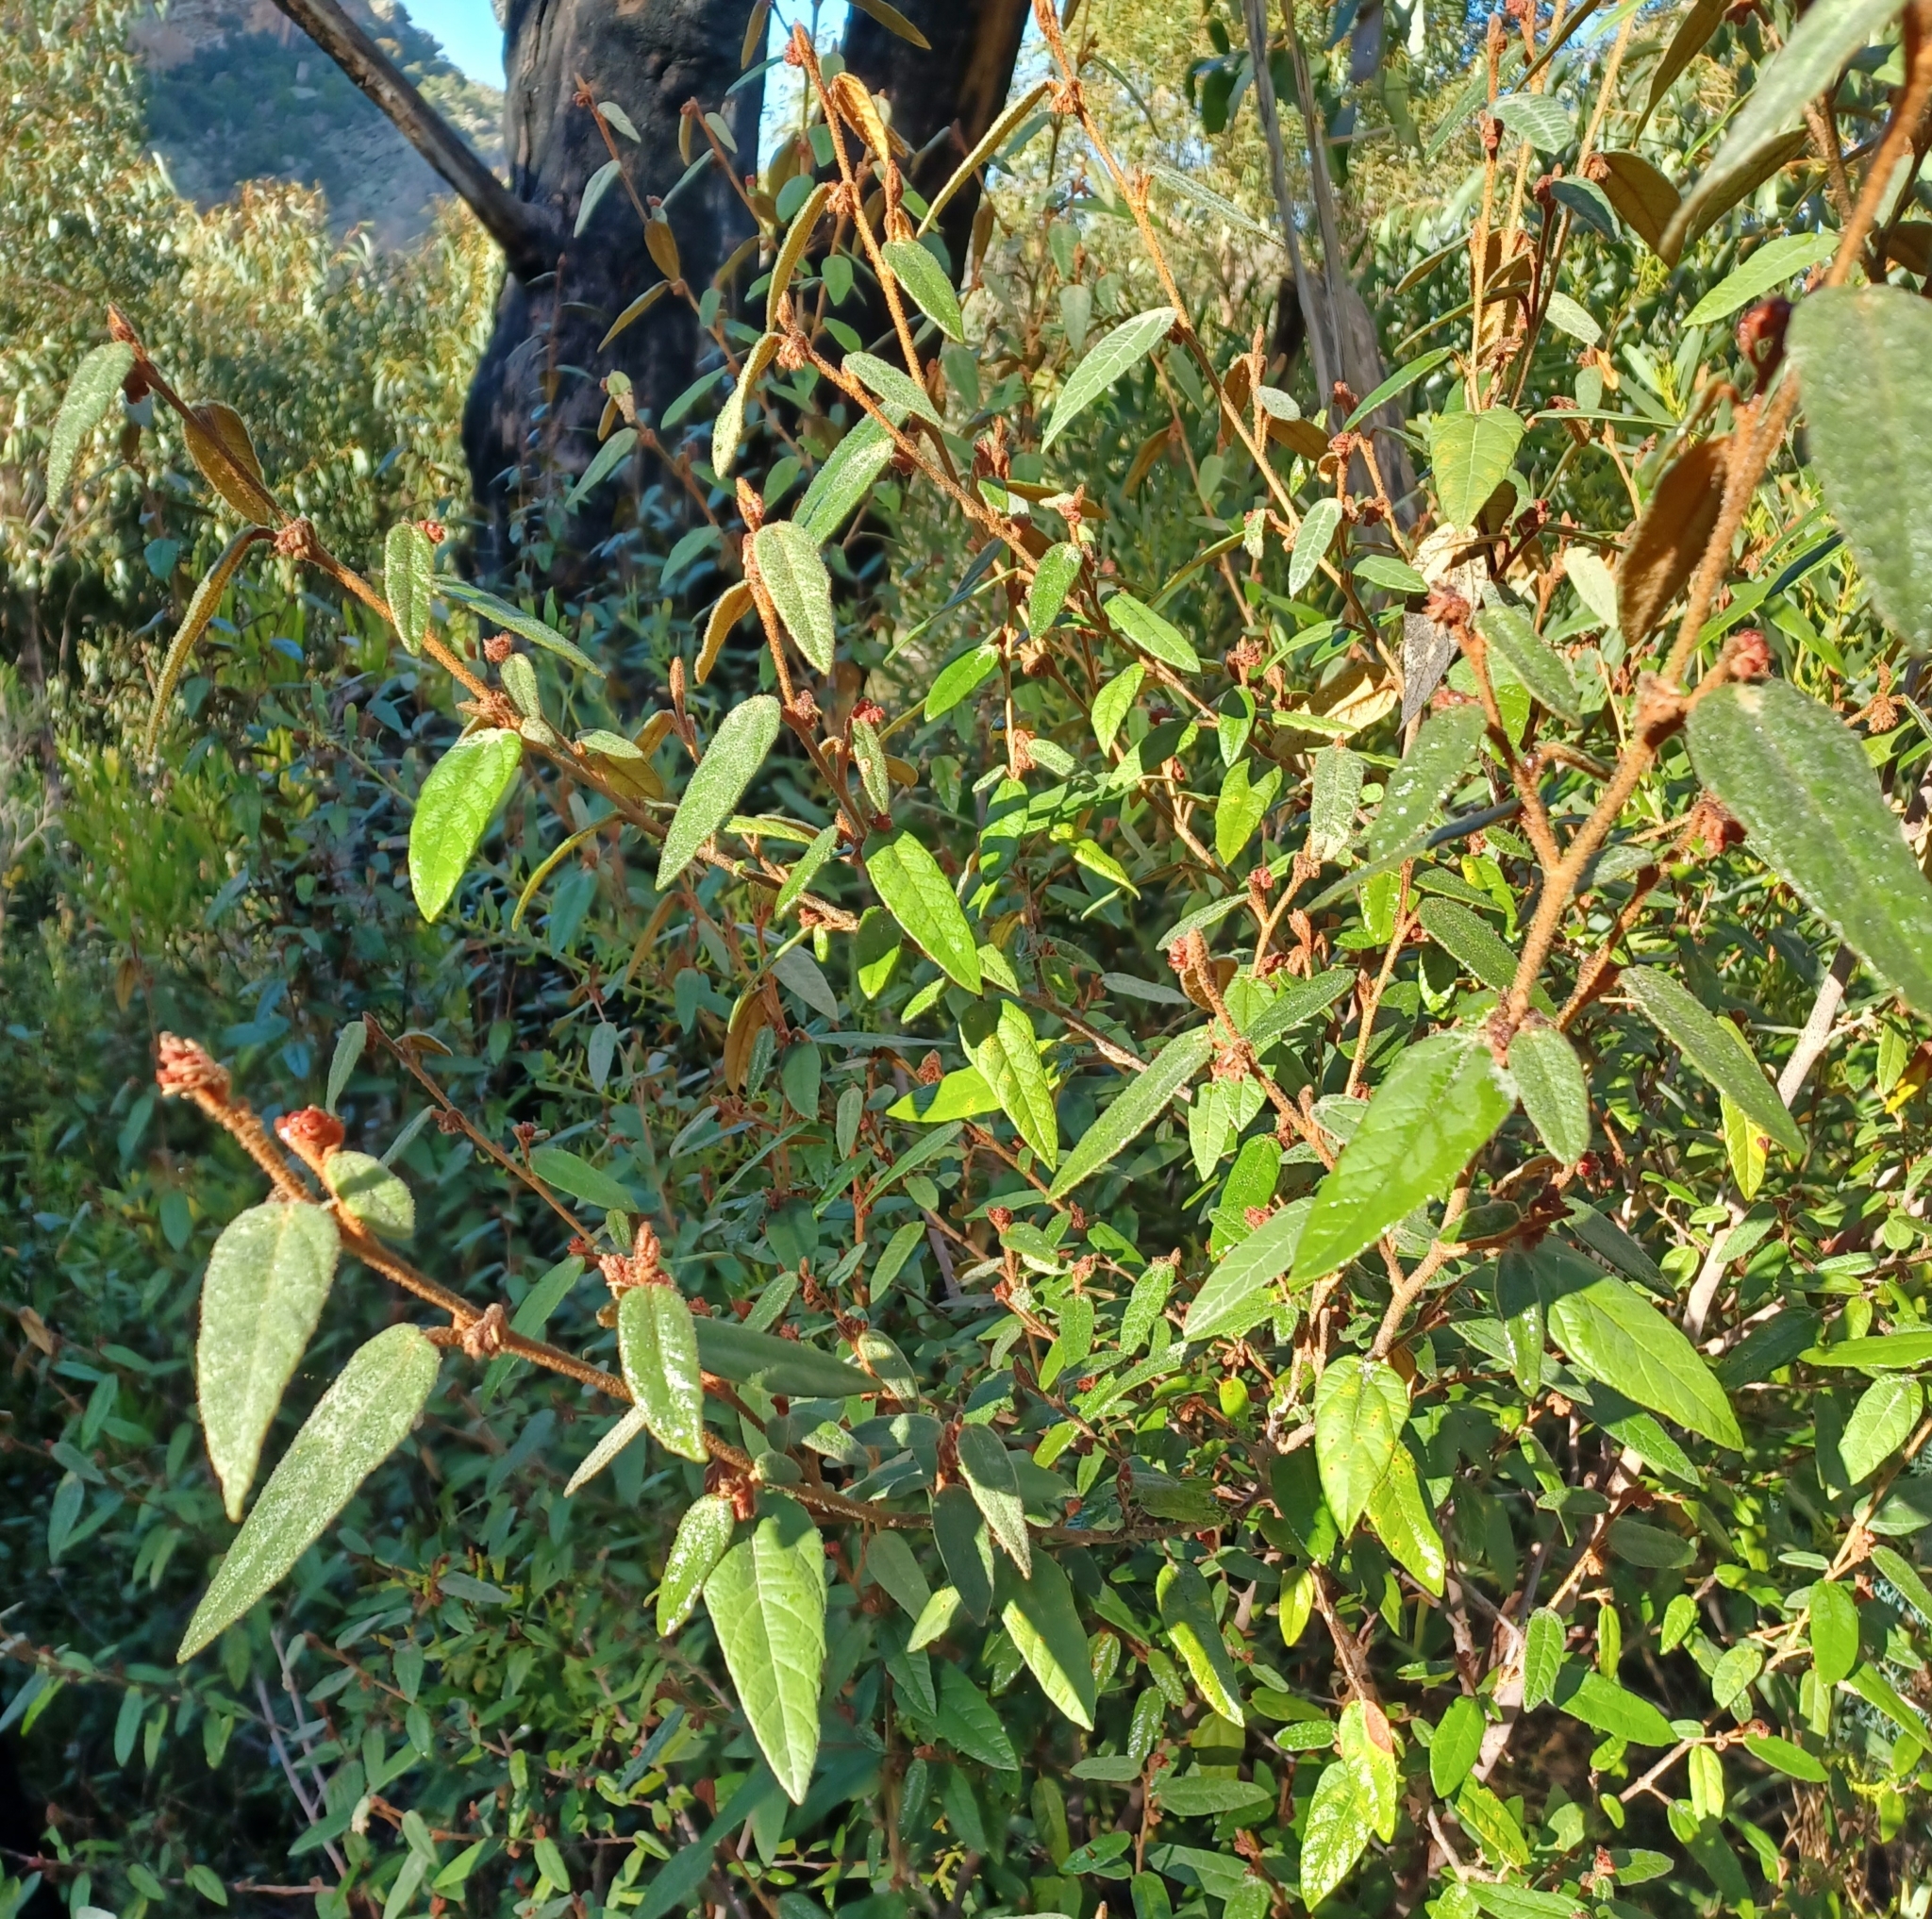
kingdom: Plantae
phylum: Tracheophyta
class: Magnoliopsida
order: Malvales
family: Malvaceae
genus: Lasiopetalum
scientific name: Lasiopetalum macrophyllum
